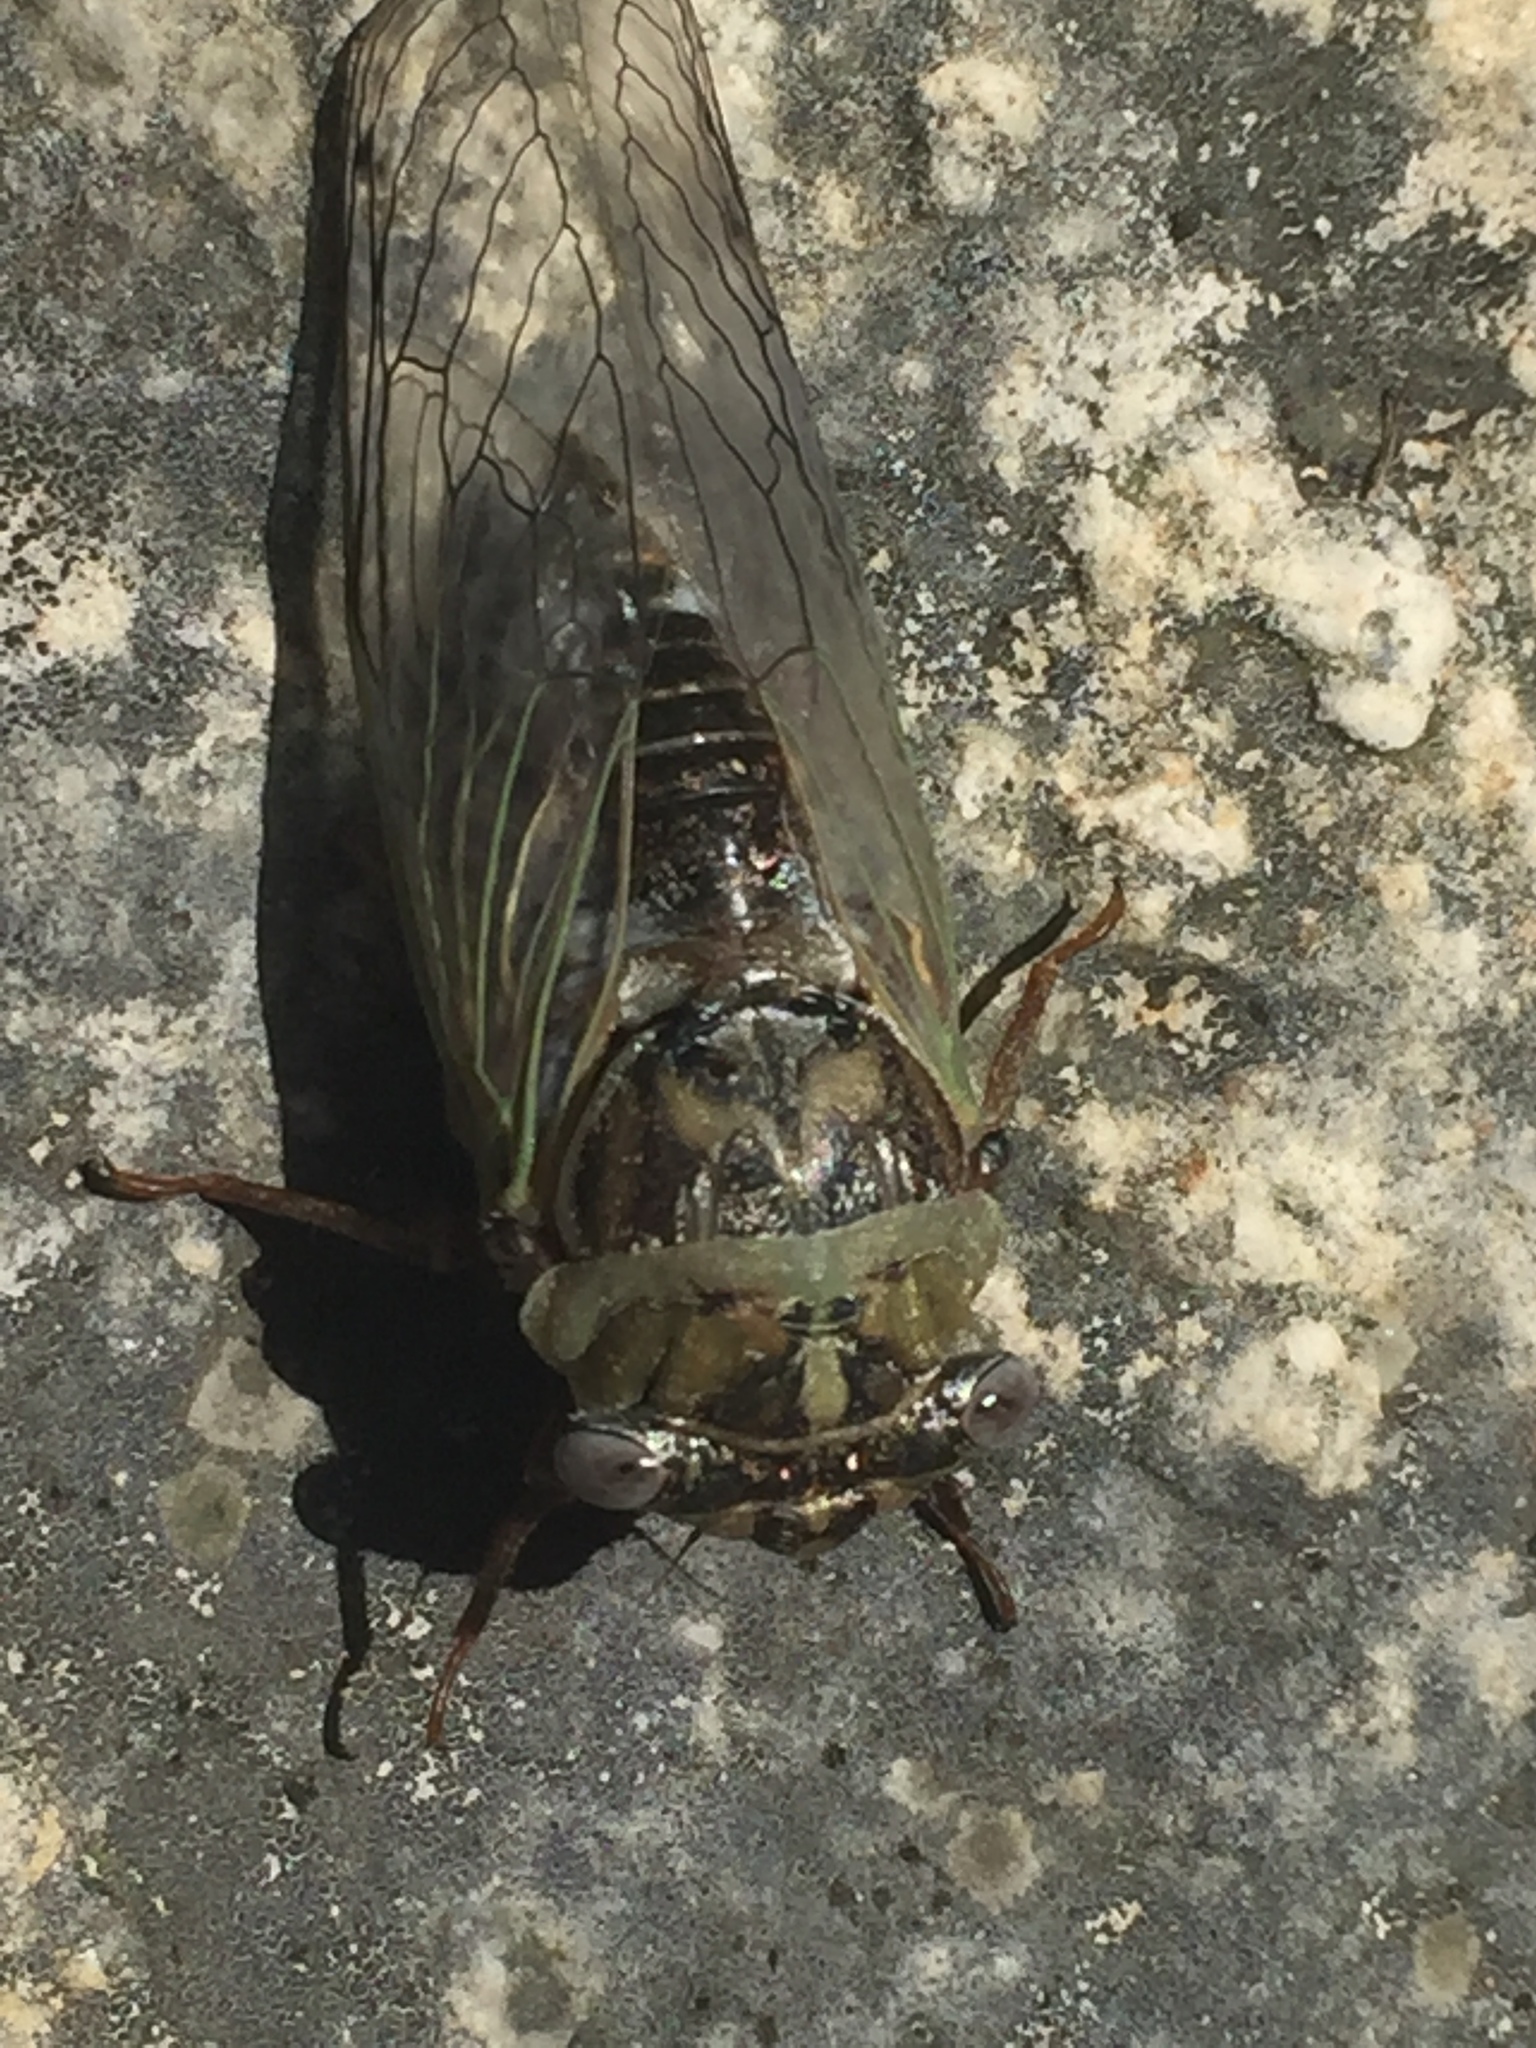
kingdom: Animalia
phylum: Arthropoda
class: Insecta
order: Hemiptera
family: Cicadidae
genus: Megatibicen
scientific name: Megatibicen resh
